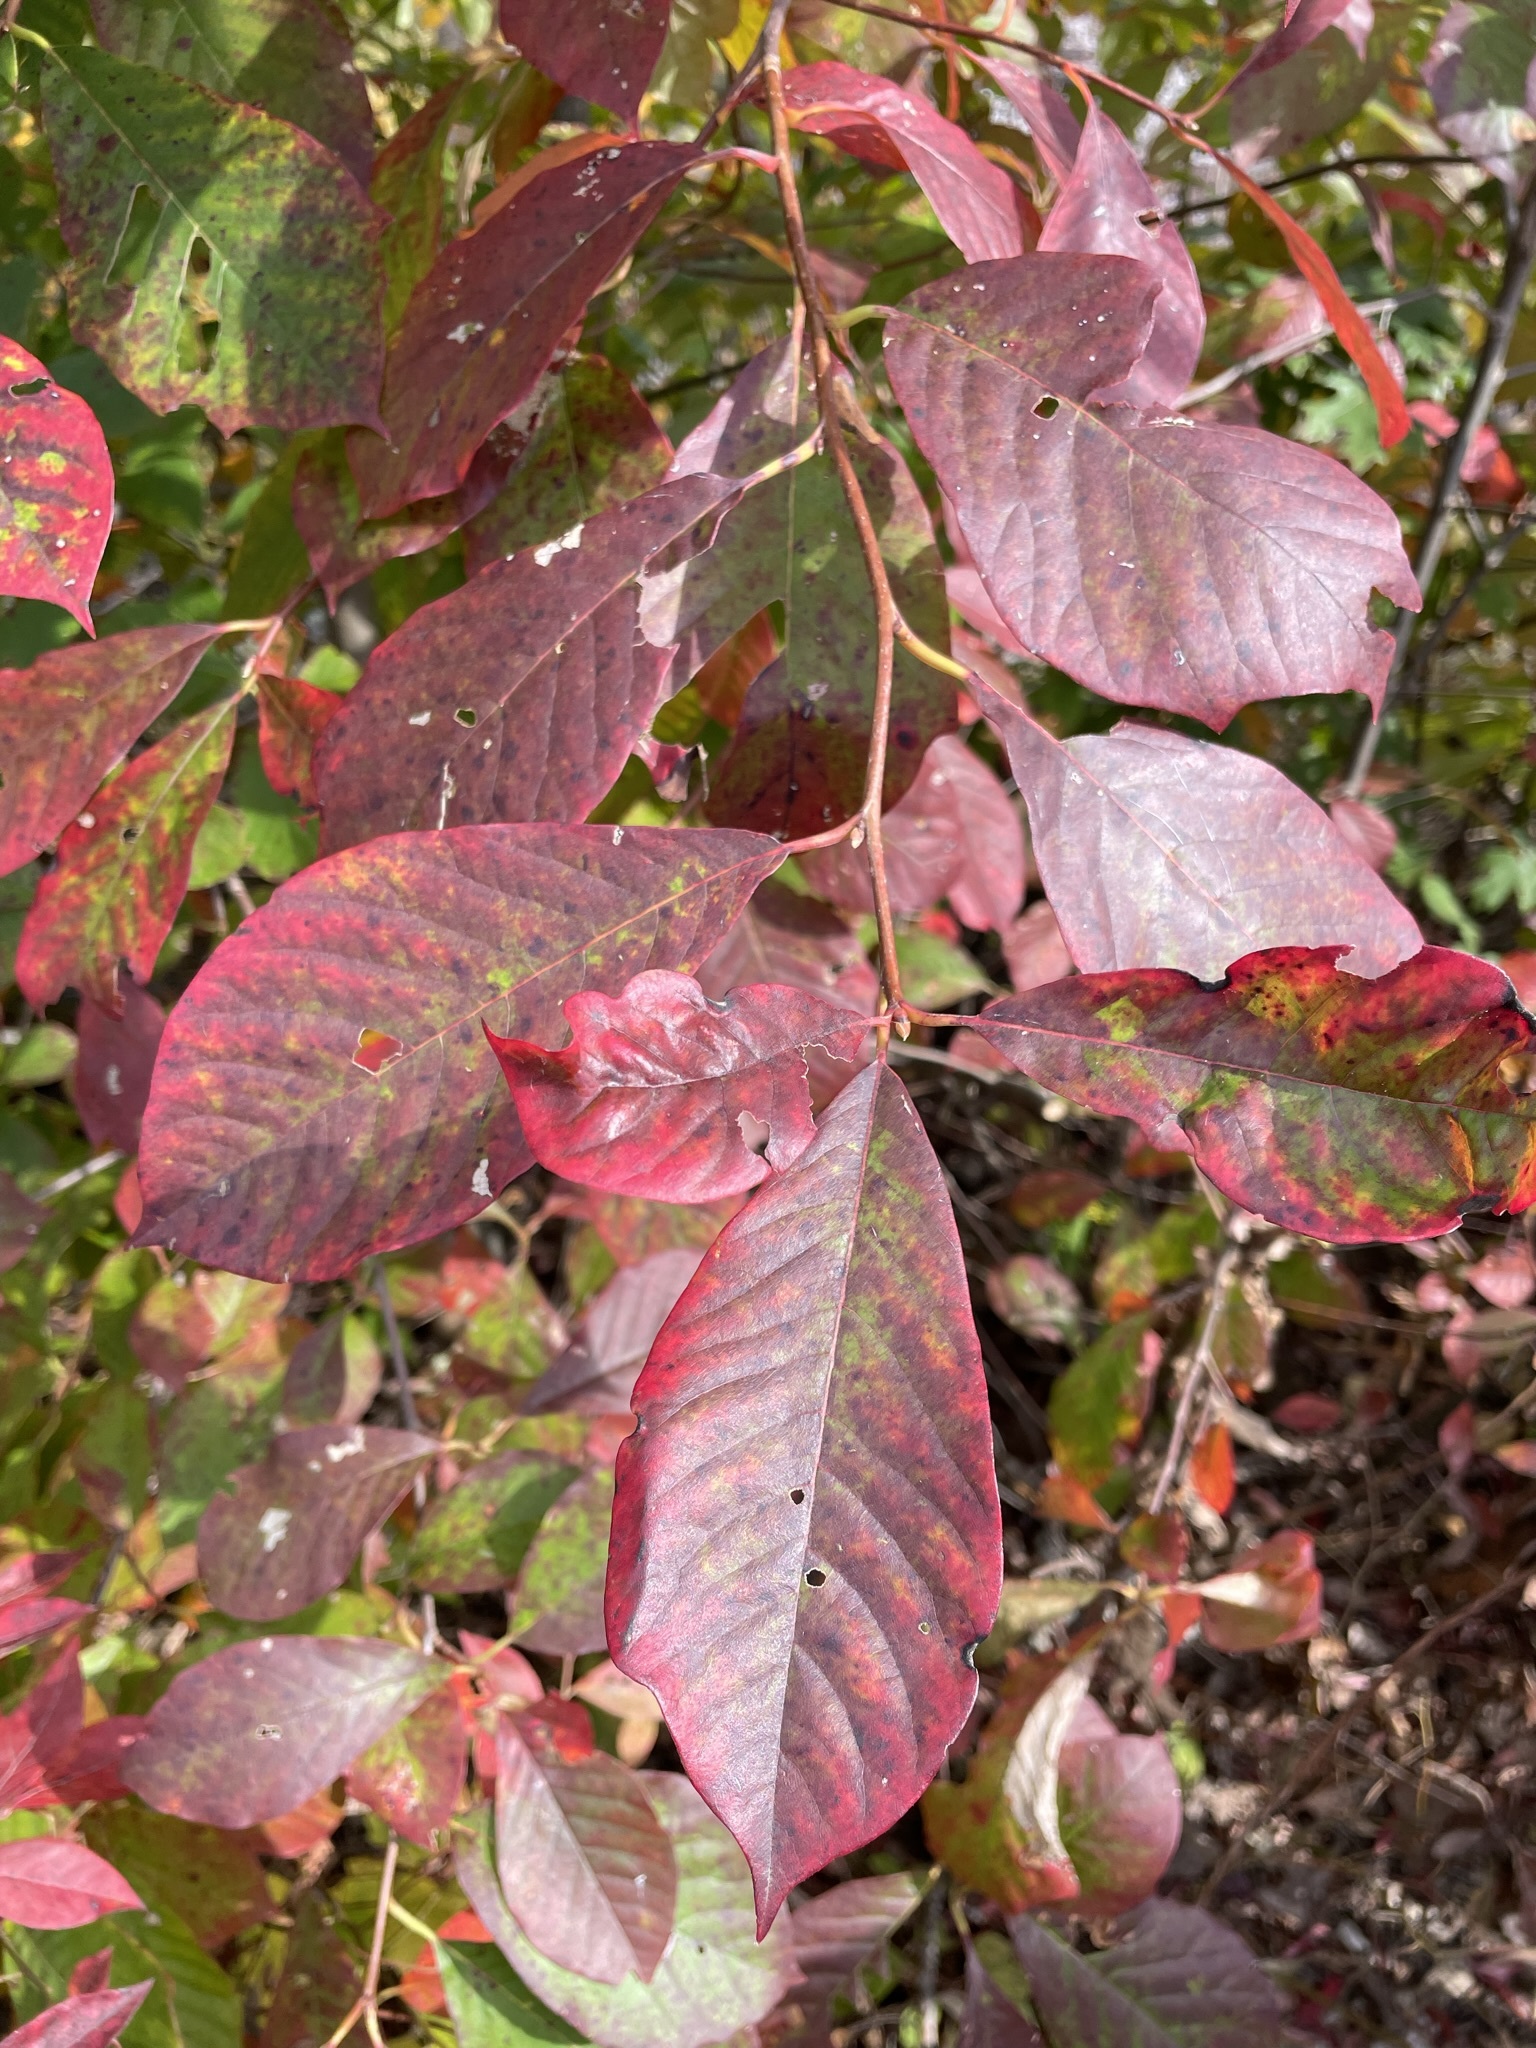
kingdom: Plantae
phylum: Tracheophyta
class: Magnoliopsida
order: Cornales
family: Nyssaceae
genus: Nyssa
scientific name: Nyssa sylvatica
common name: Black tupelo
